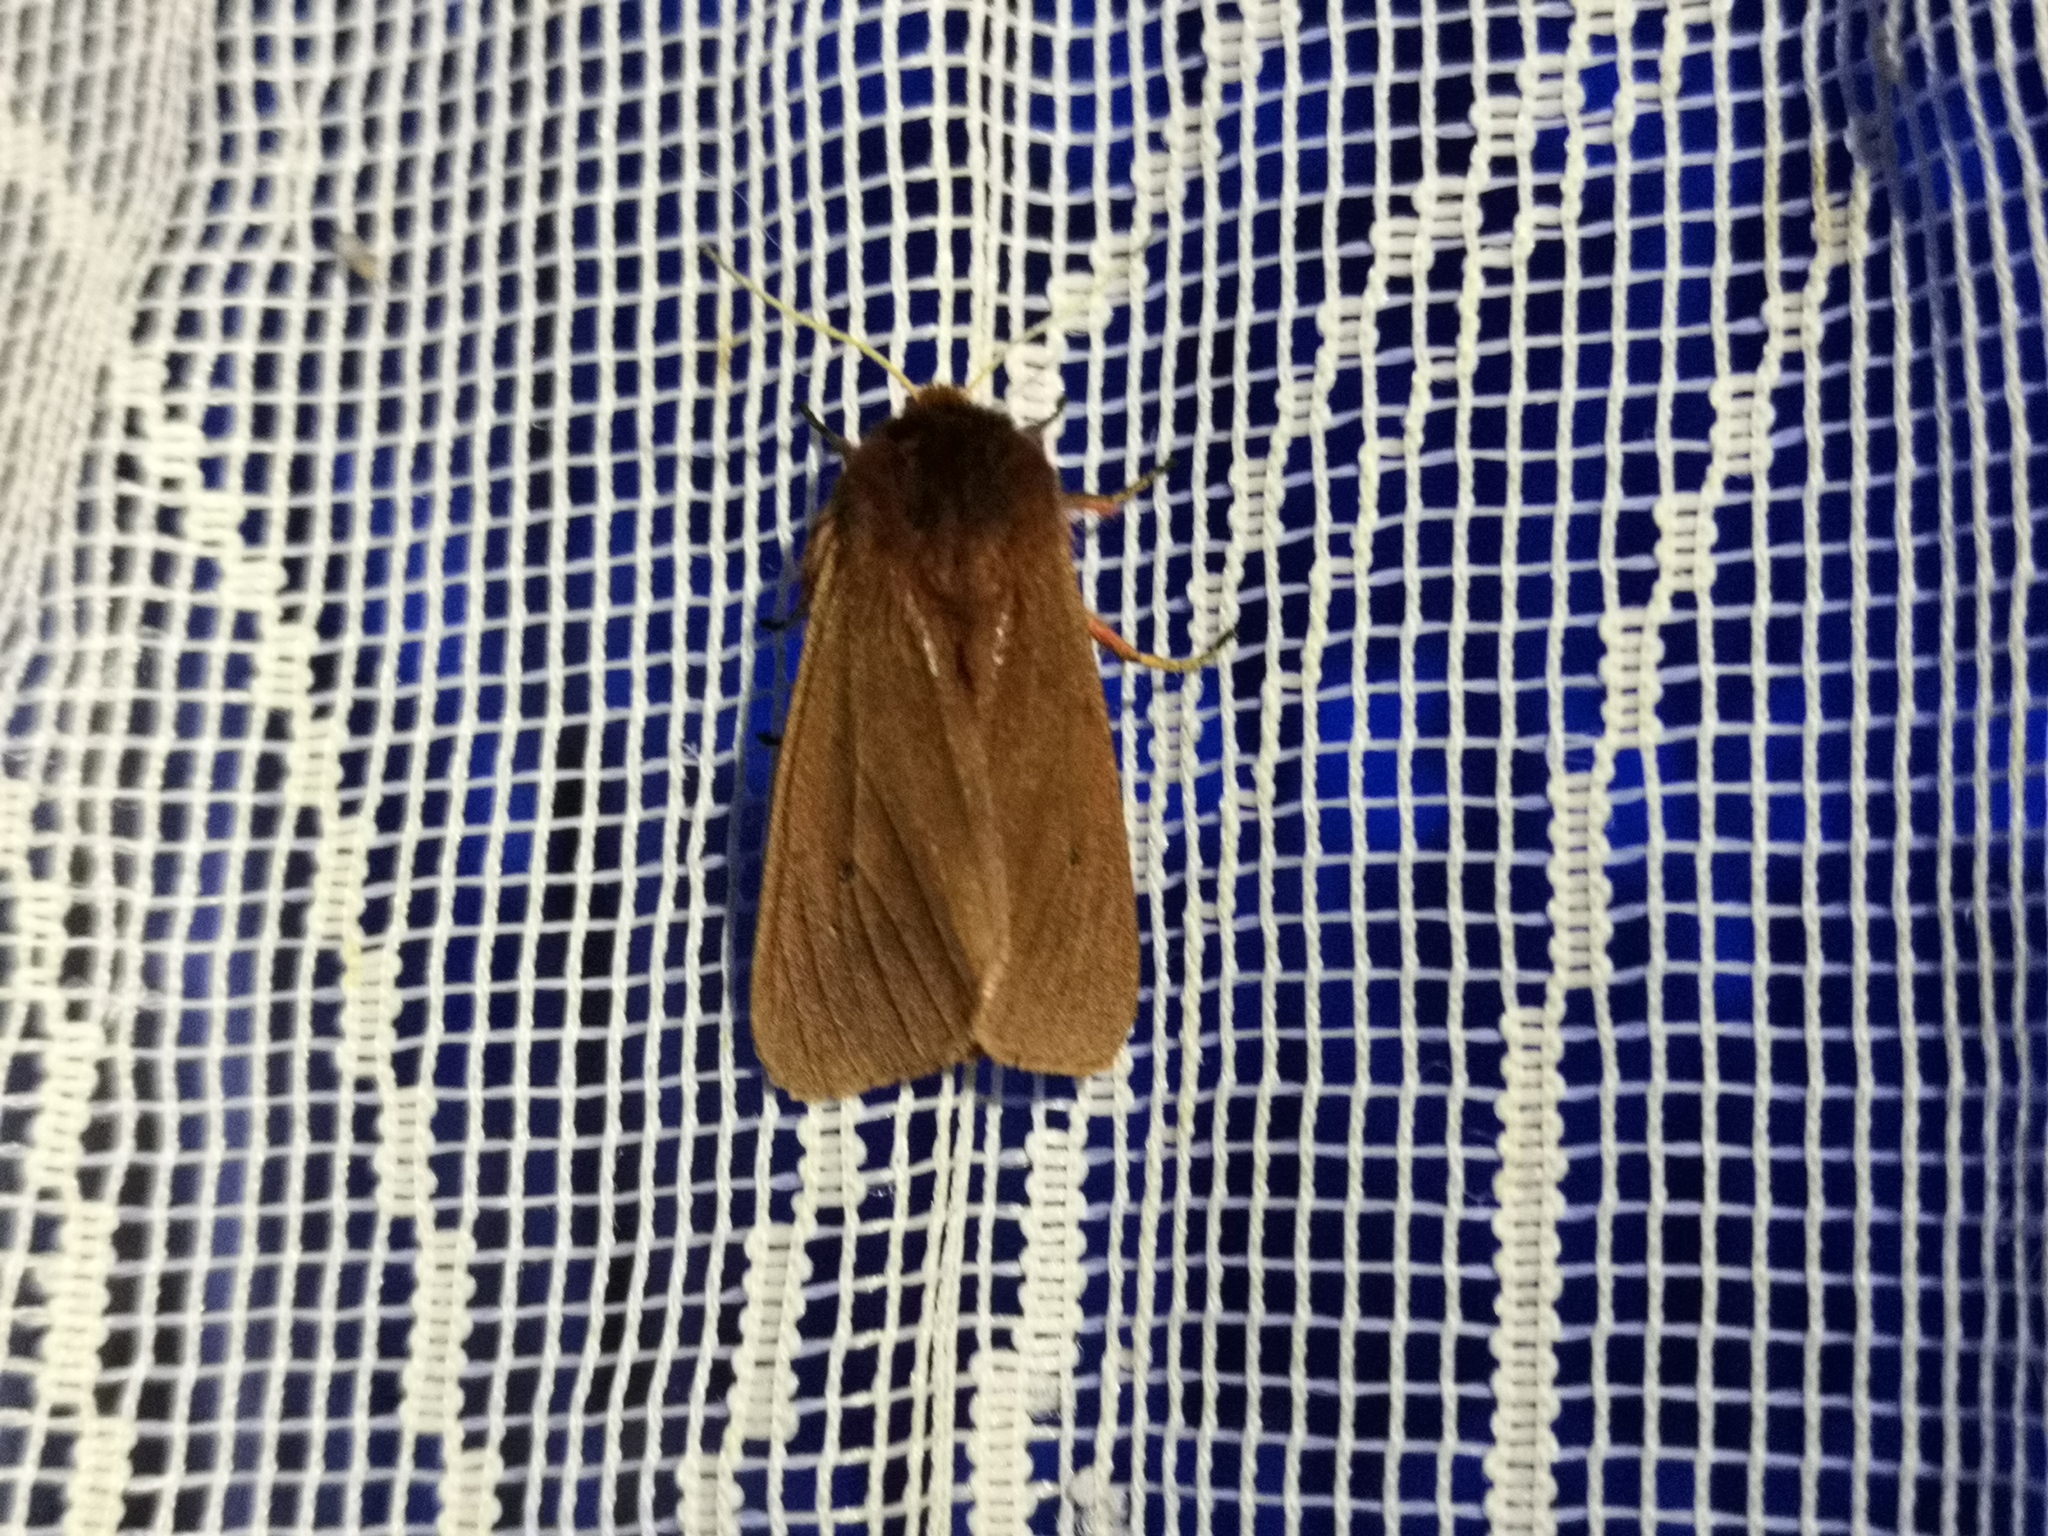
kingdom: Animalia
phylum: Arthropoda
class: Insecta
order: Lepidoptera
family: Erebidae
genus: Phragmatobia
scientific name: Phragmatobia fuliginosa
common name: Ruby tiger
